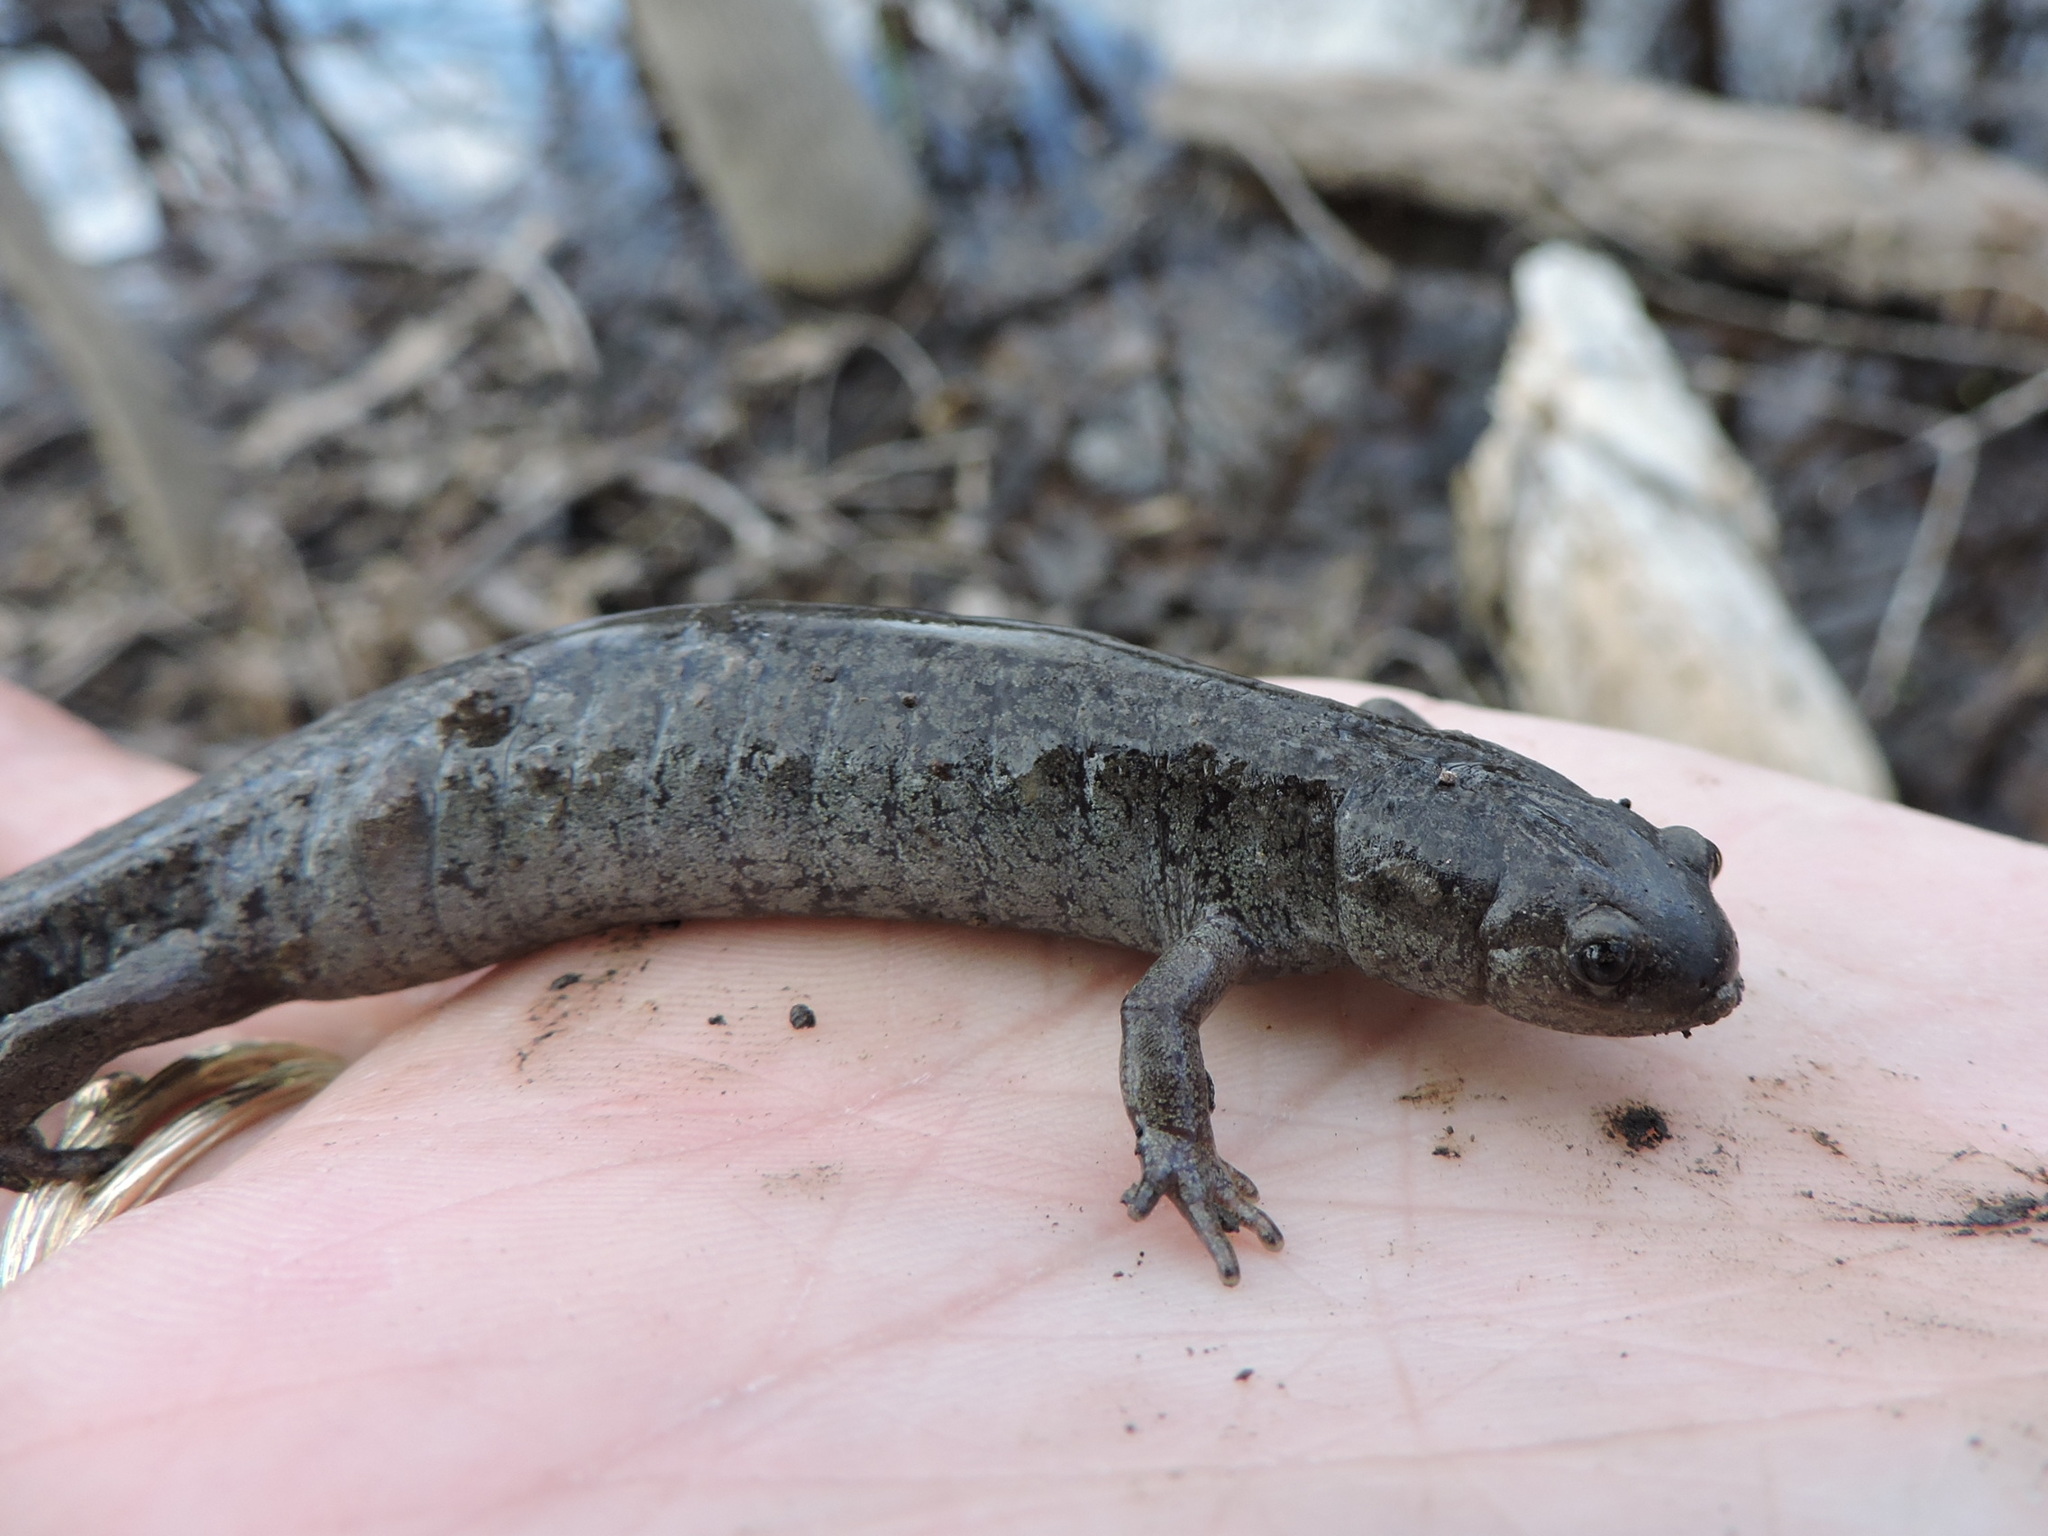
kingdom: Animalia
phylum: Chordata
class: Amphibia
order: Caudata
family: Ambystomatidae
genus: Ambystoma
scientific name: Ambystoma texanum
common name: Small-mouth salamander
